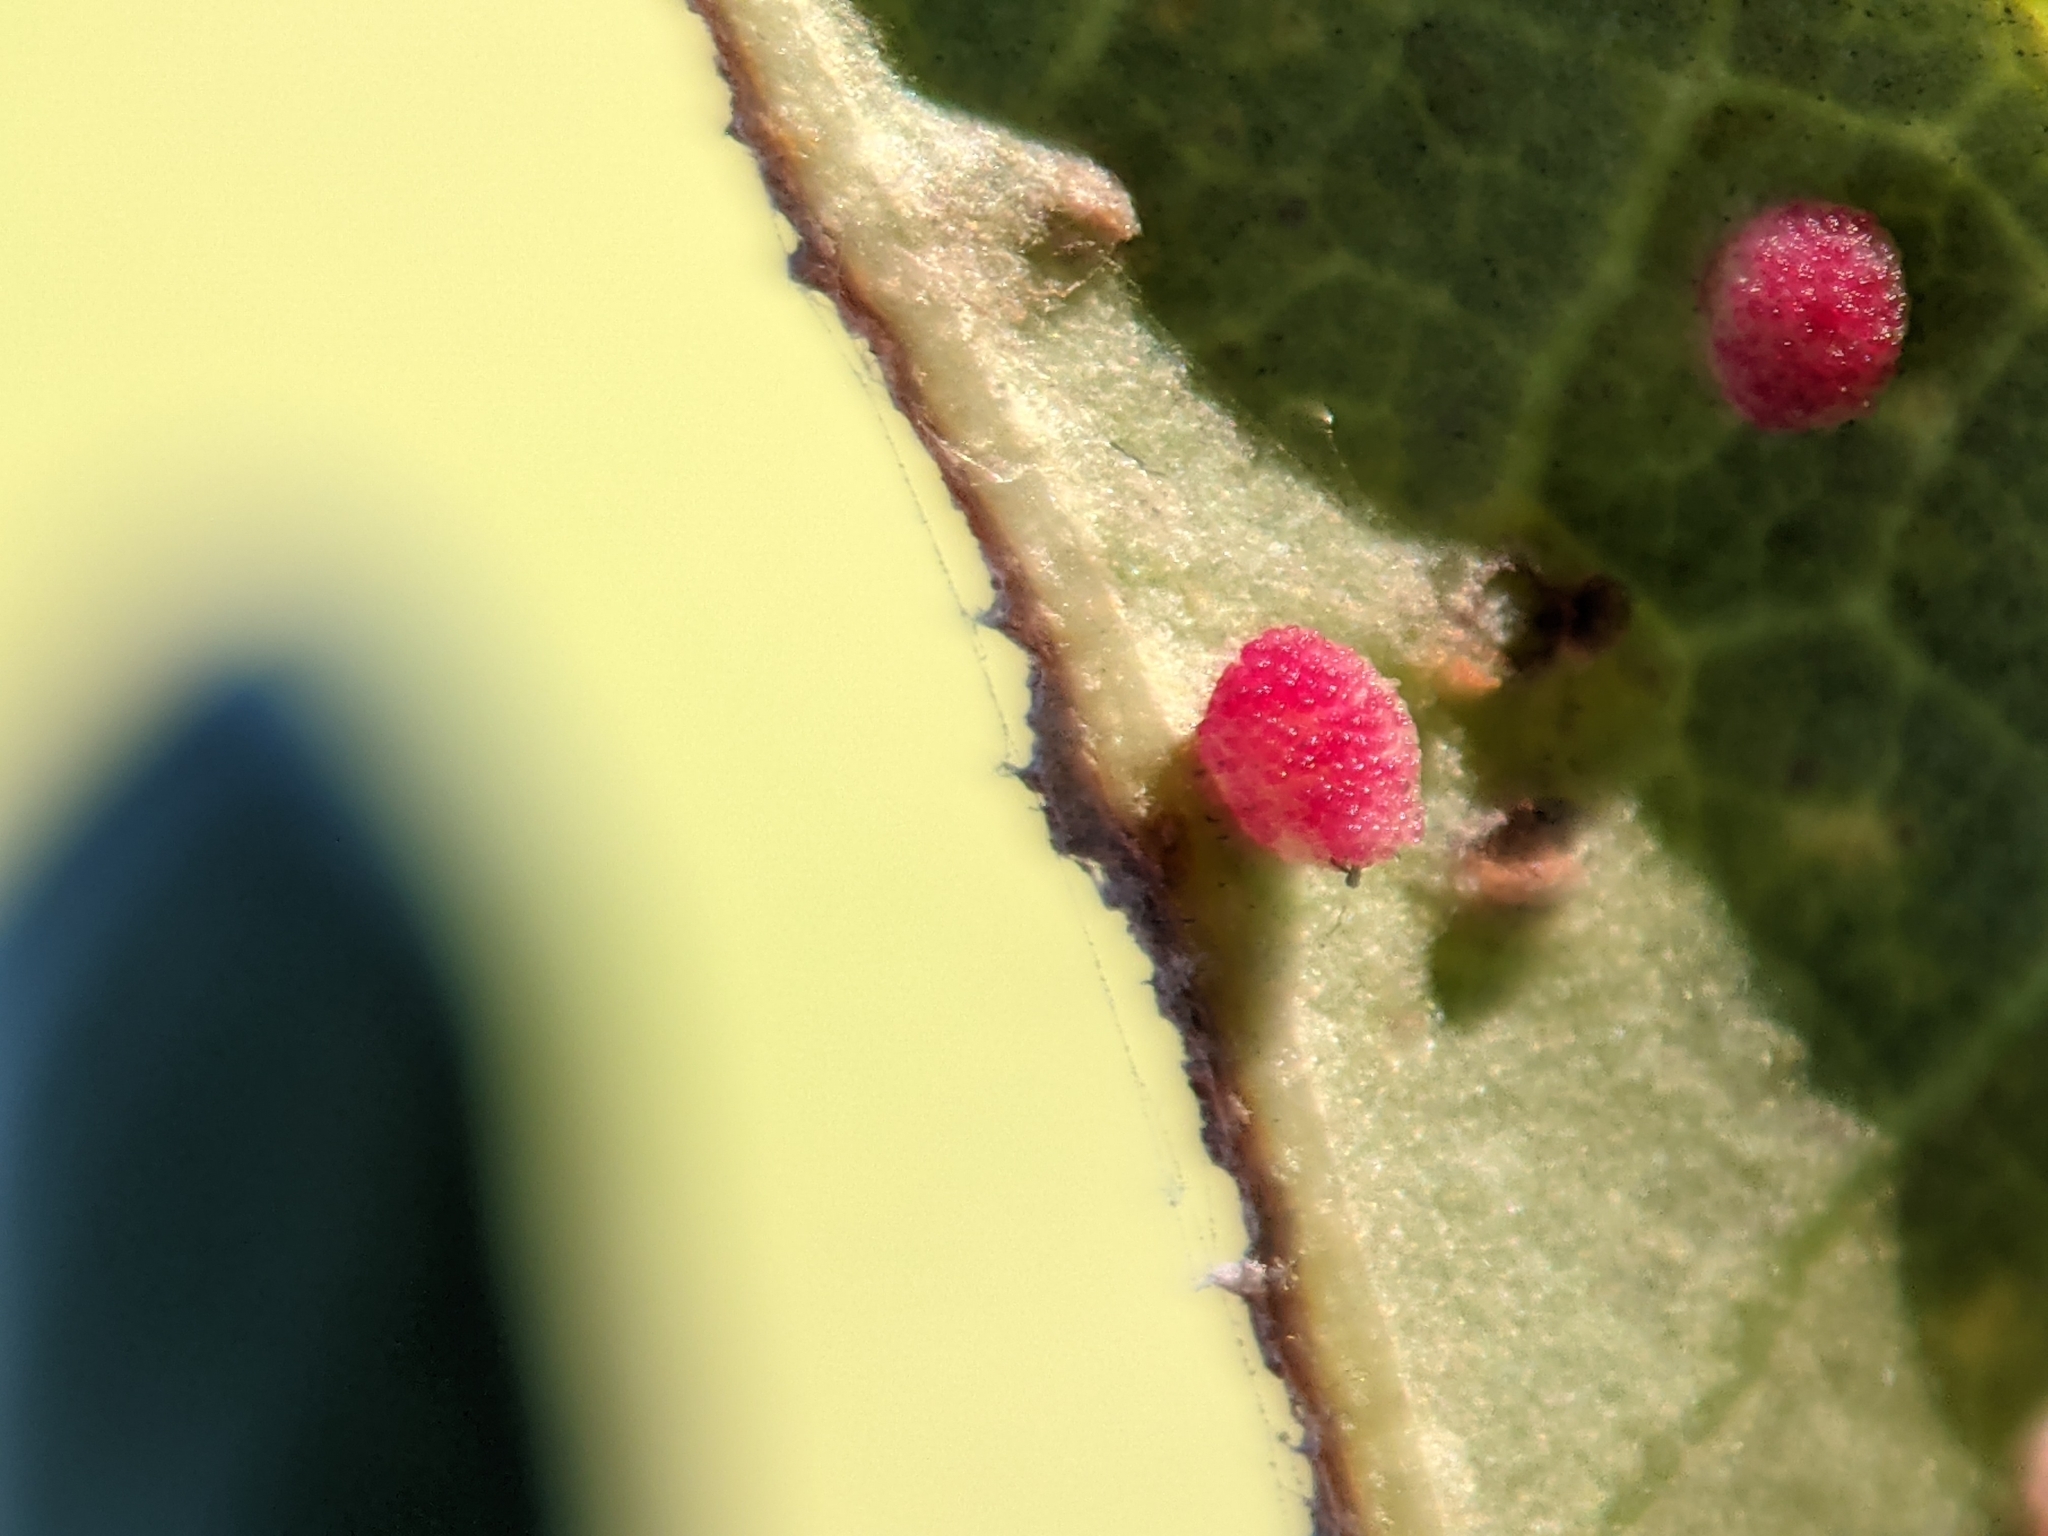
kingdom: Animalia
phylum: Arthropoda
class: Insecta
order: Hymenoptera
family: Cynipidae
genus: Neuroterus
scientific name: Neuroterus saltarius
